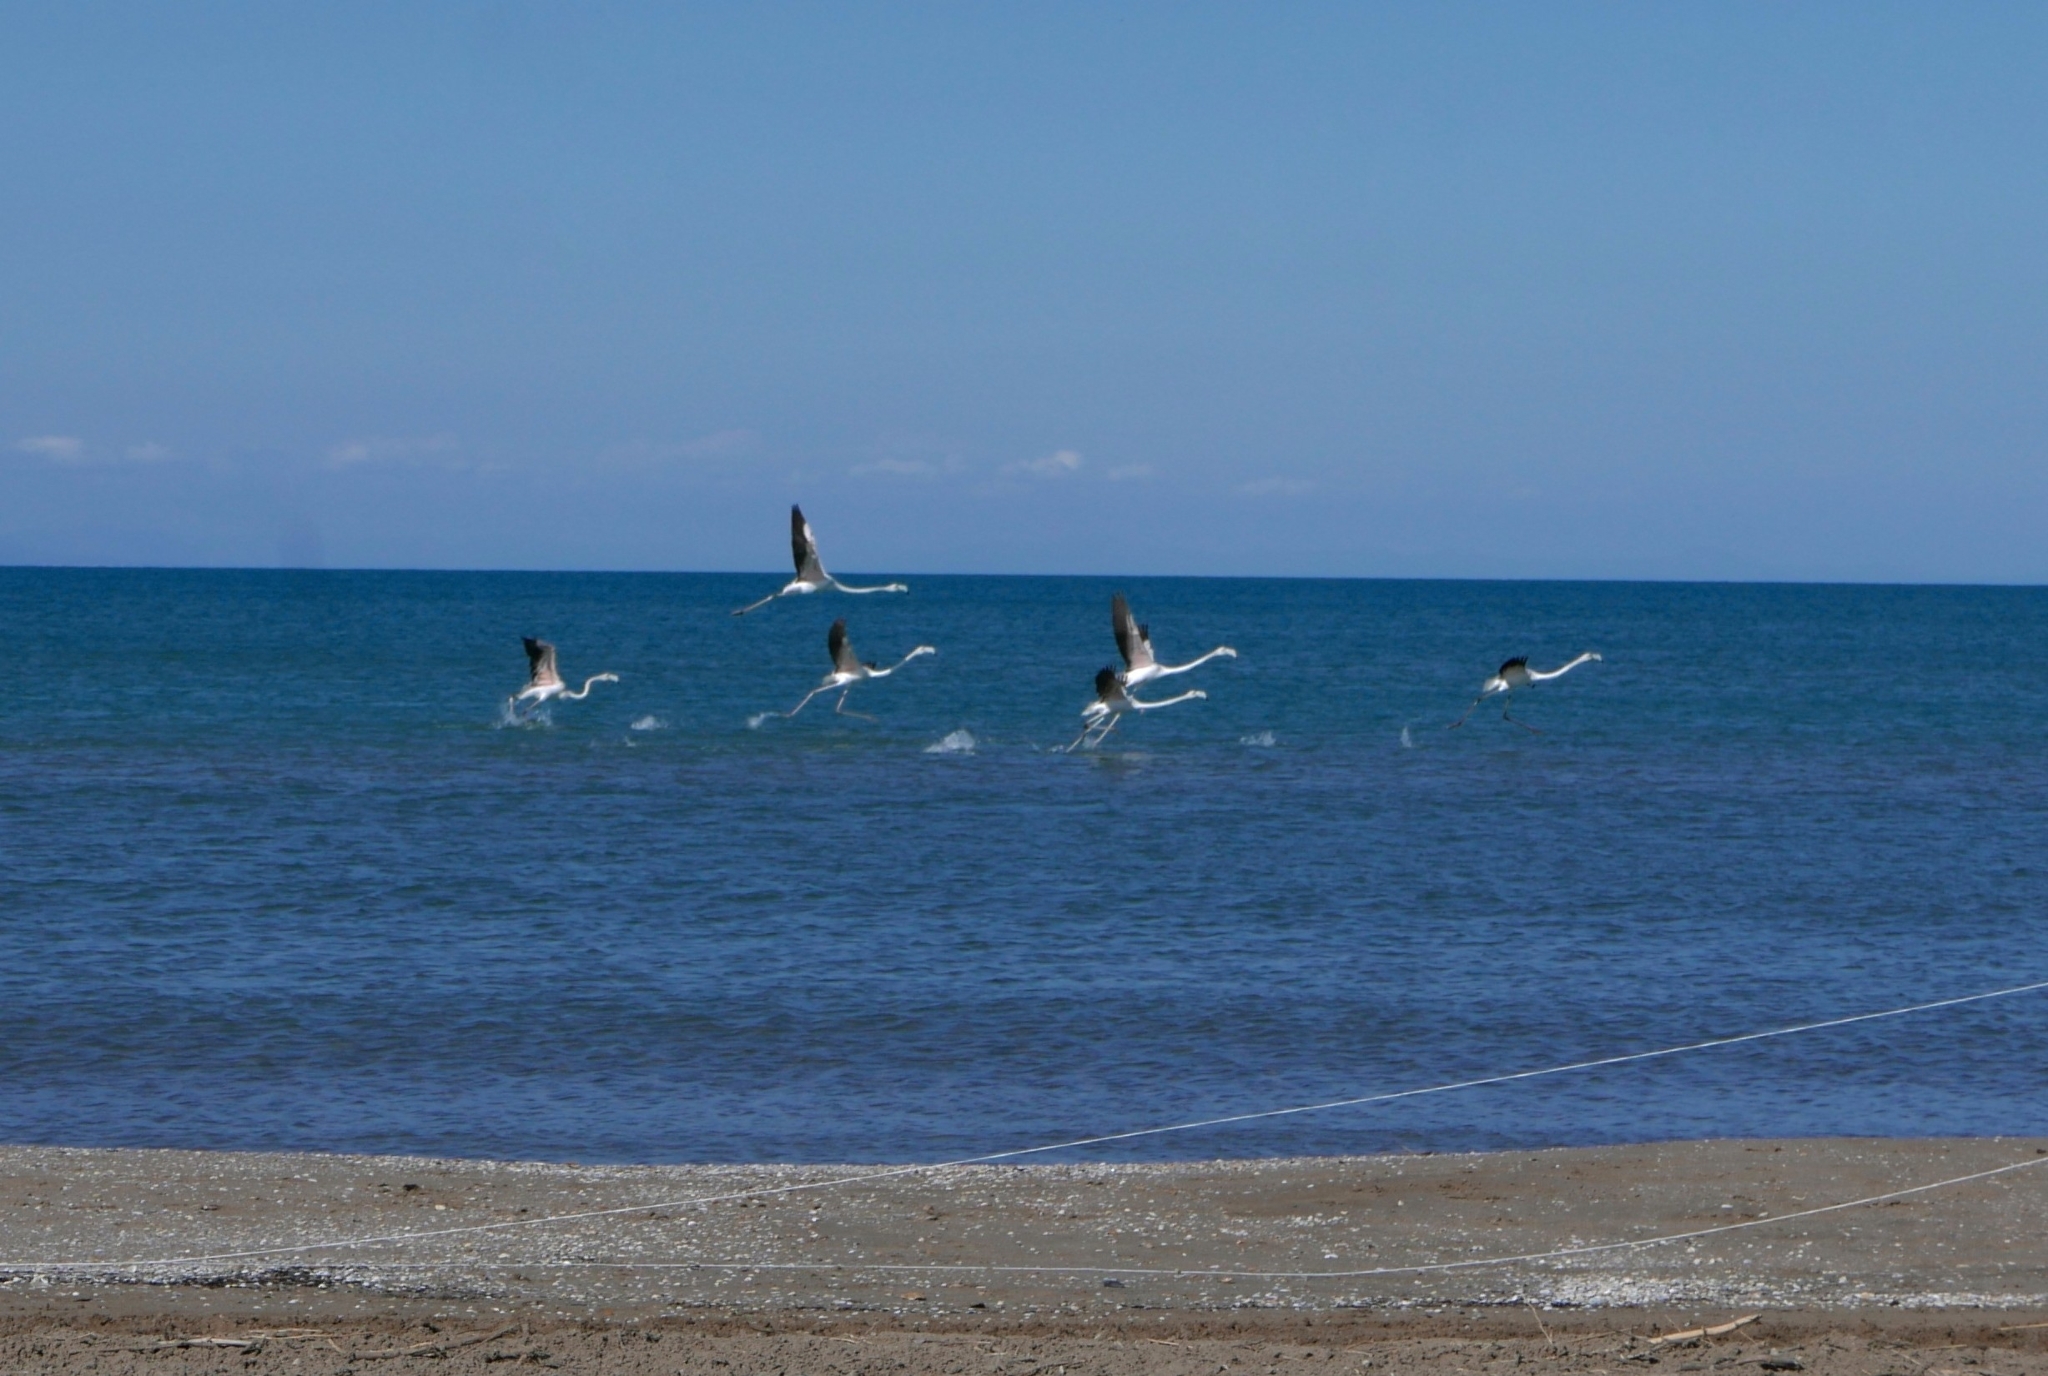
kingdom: Animalia
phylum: Chordata
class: Aves
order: Phoenicopteriformes
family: Phoenicopteridae
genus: Phoenicopterus
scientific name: Phoenicopterus roseus
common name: Greater flamingo
